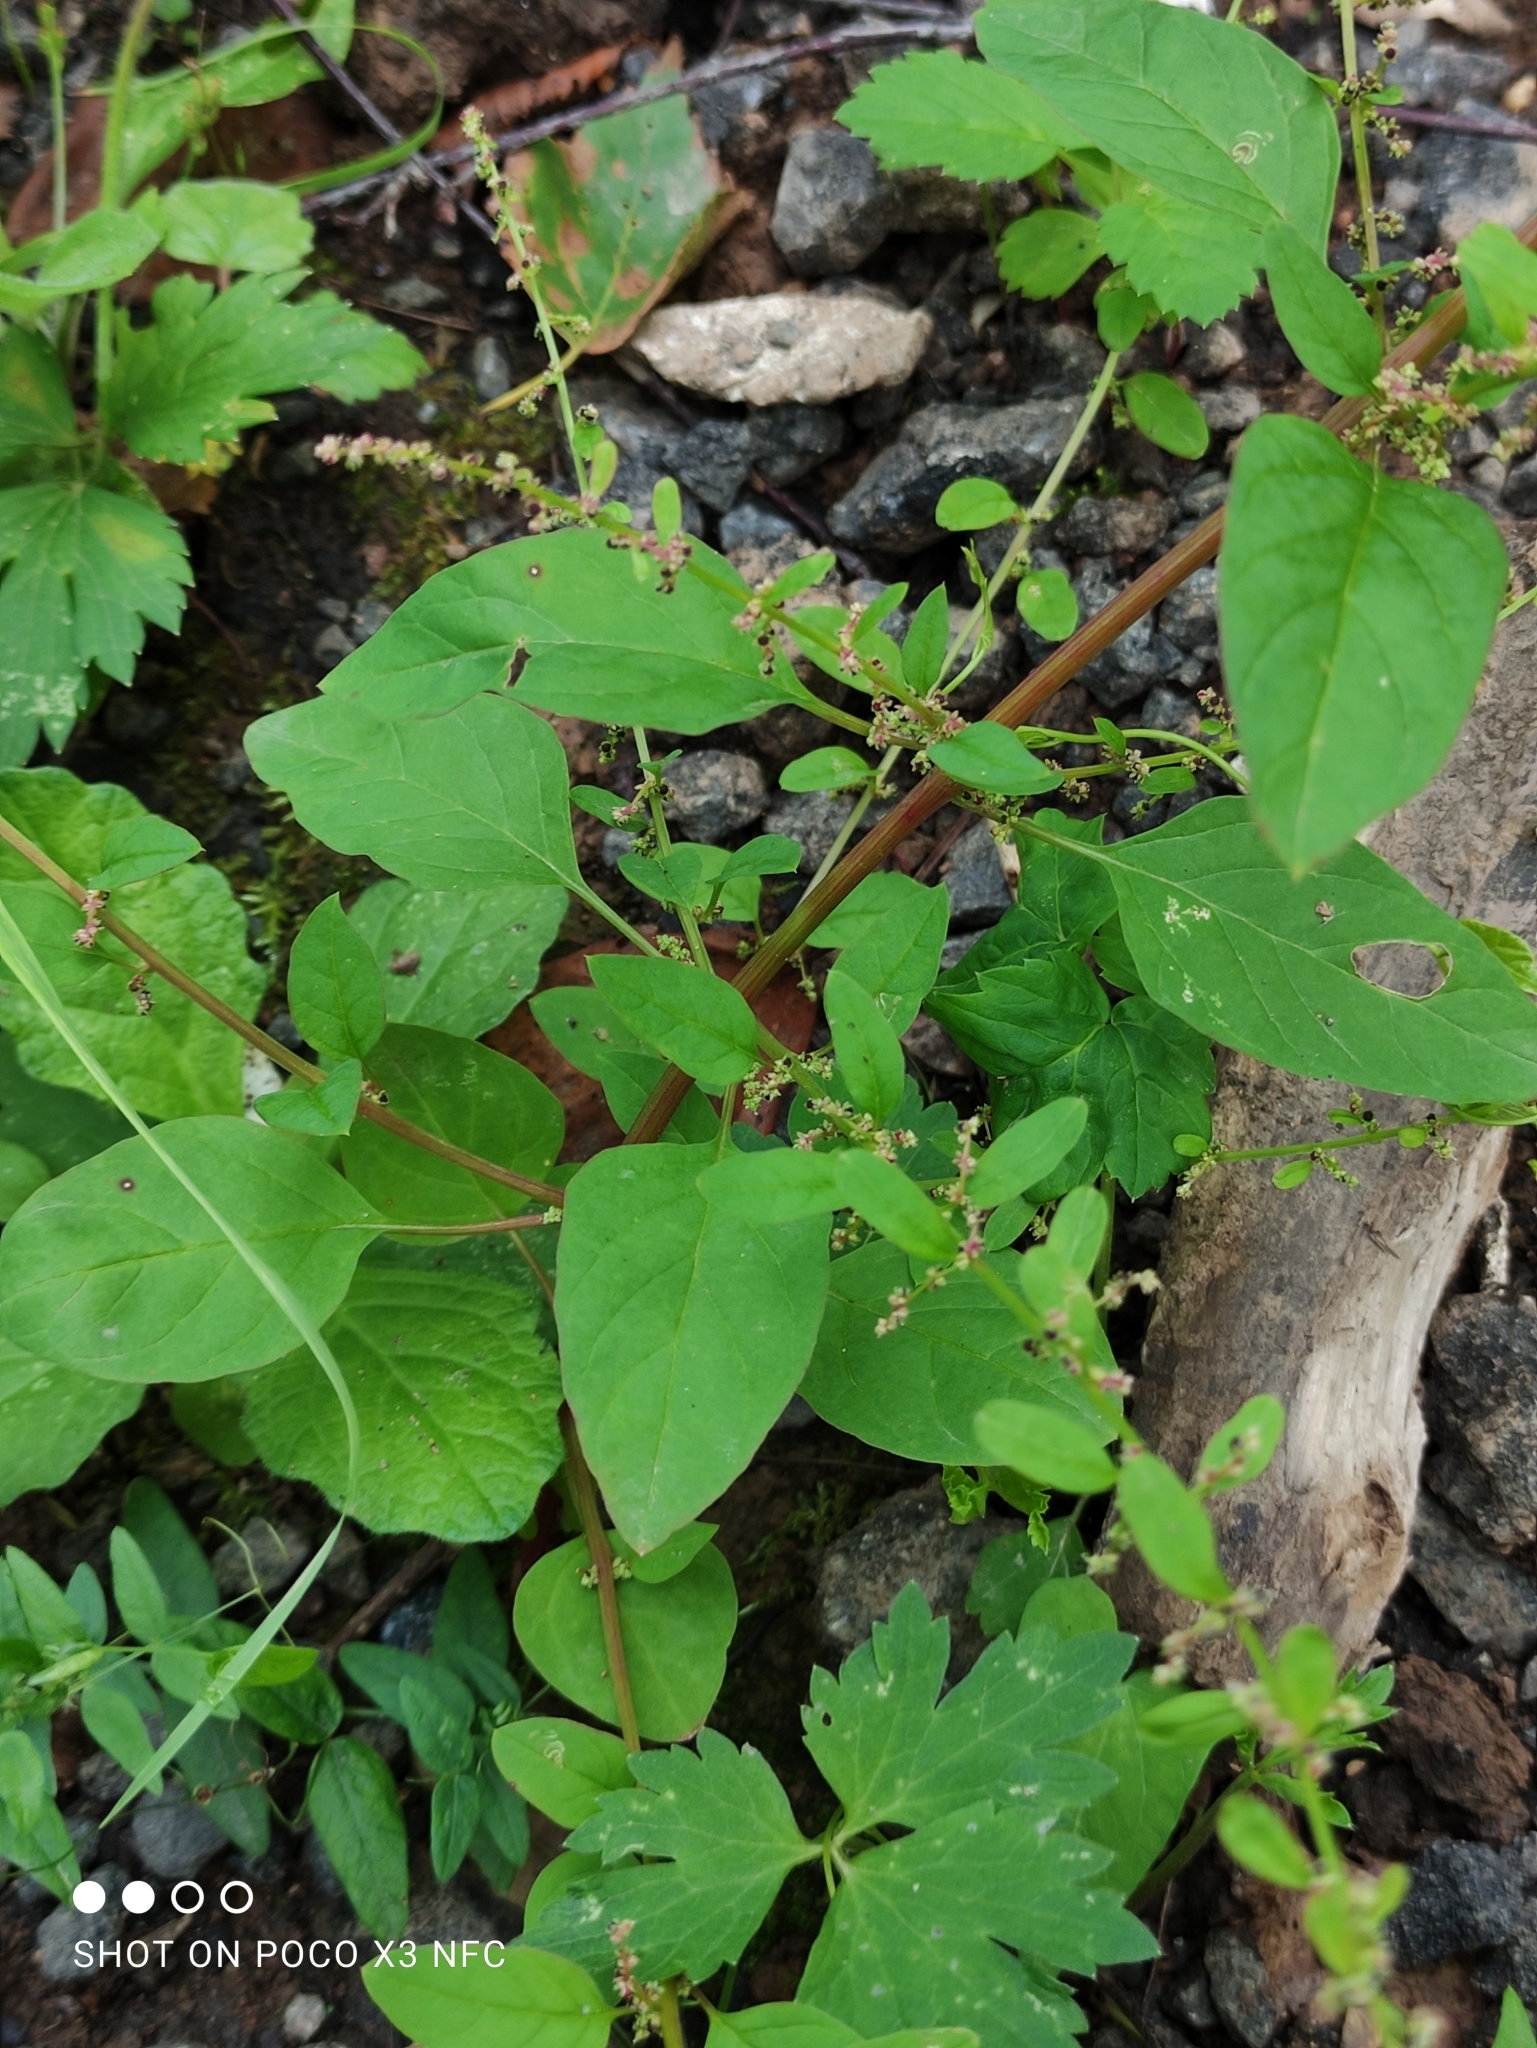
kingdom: Plantae
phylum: Tracheophyta
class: Magnoliopsida
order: Caryophyllales
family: Amaranthaceae
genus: Lipandra
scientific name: Lipandra polysperma
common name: Many-seed goosefoot
